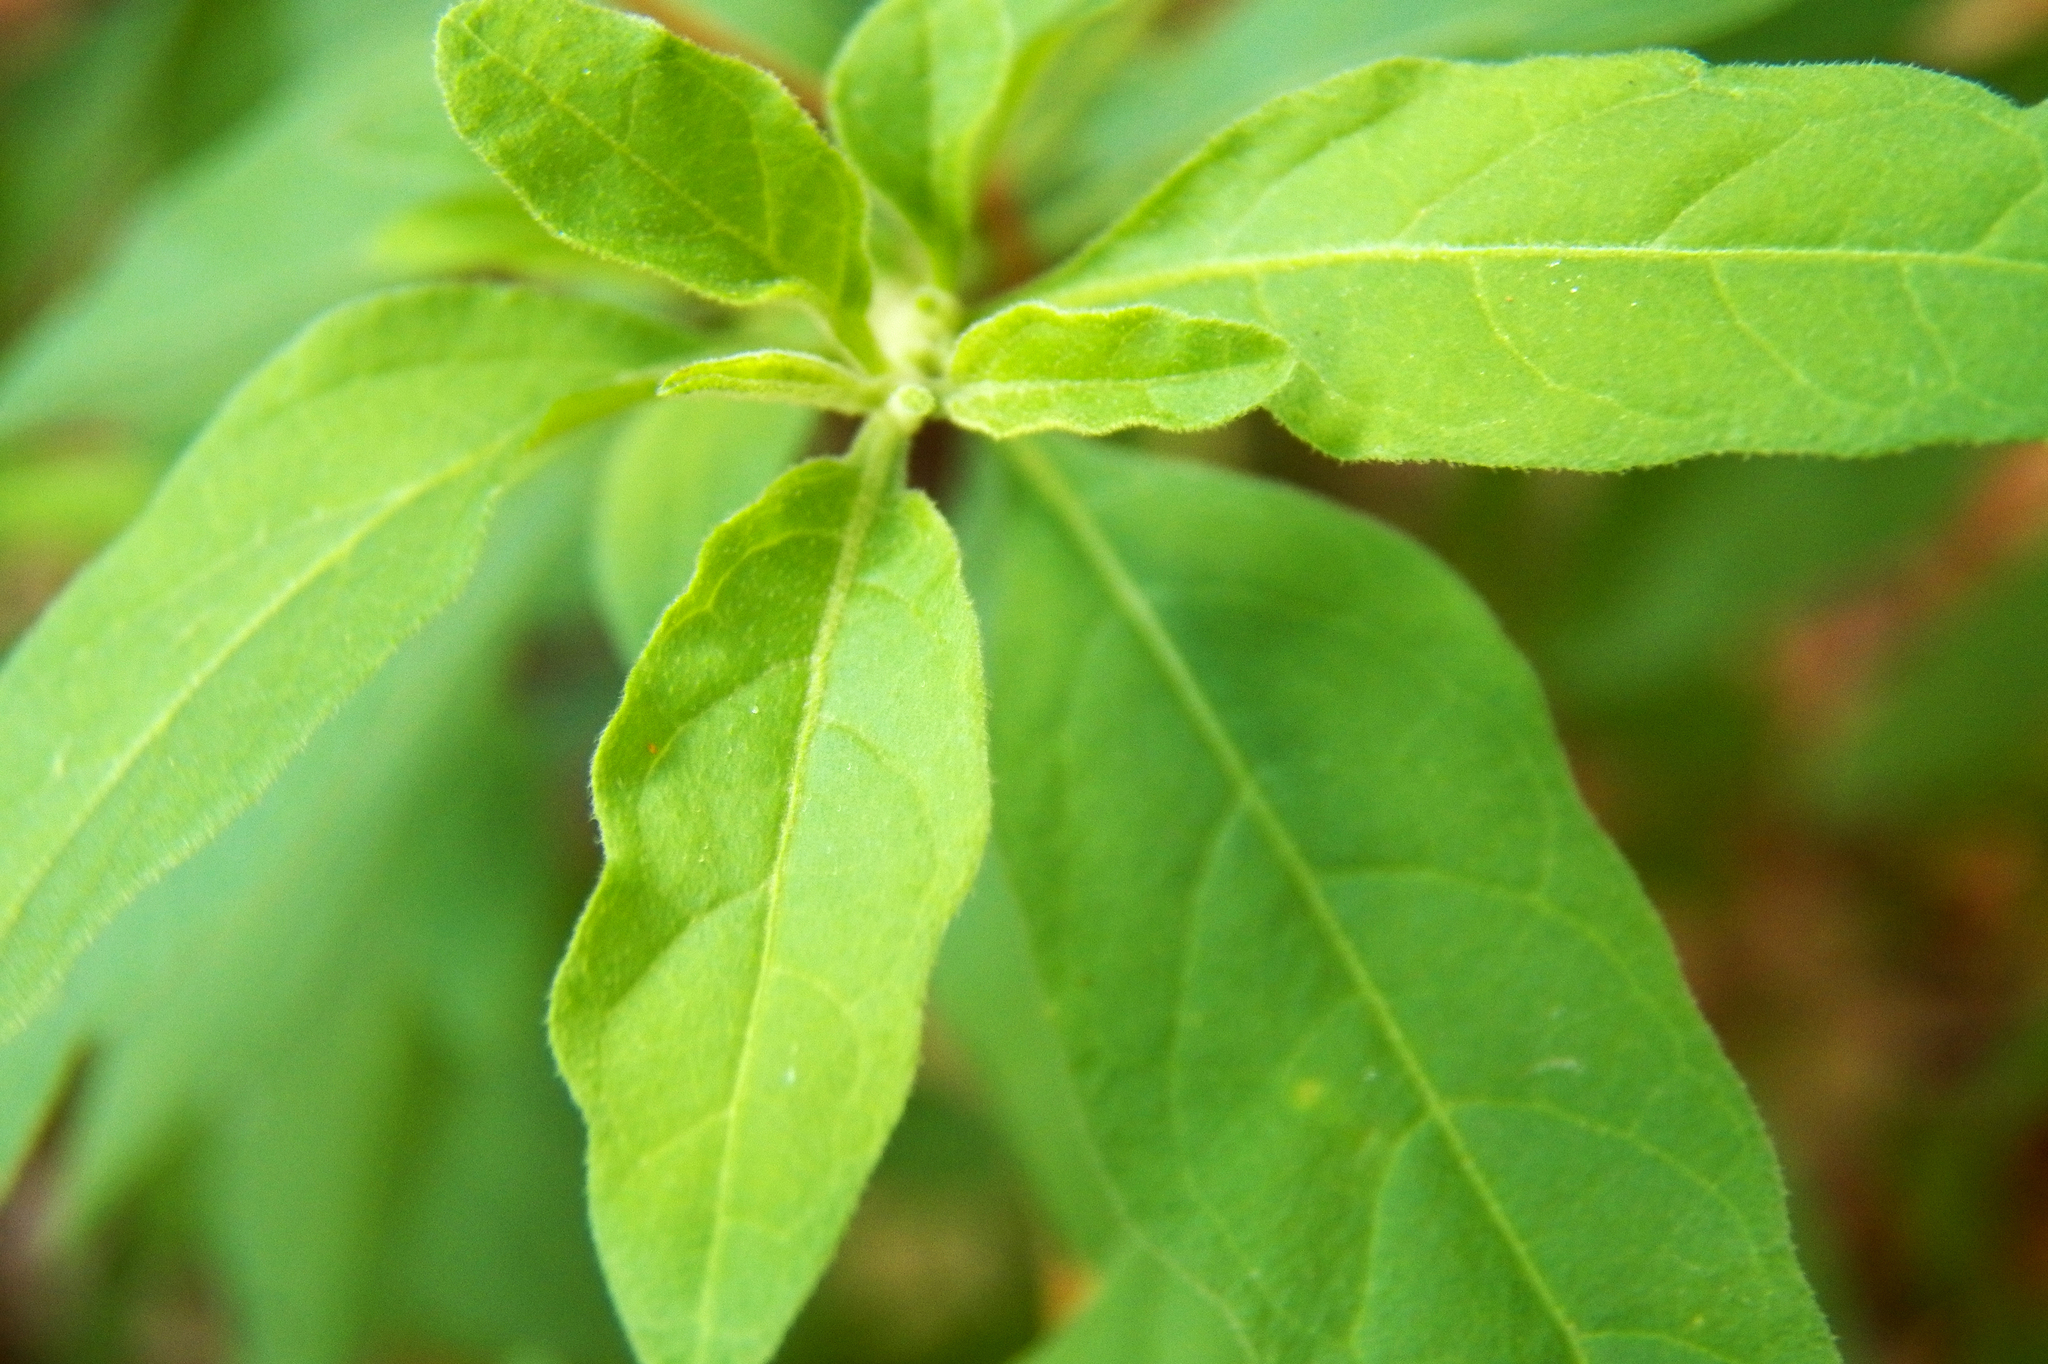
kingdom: Plantae
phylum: Tracheophyta
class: Magnoliopsida
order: Solanales
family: Solanaceae
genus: Solanum
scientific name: Solanum pseudocapsicum
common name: Jerusalem cherry
